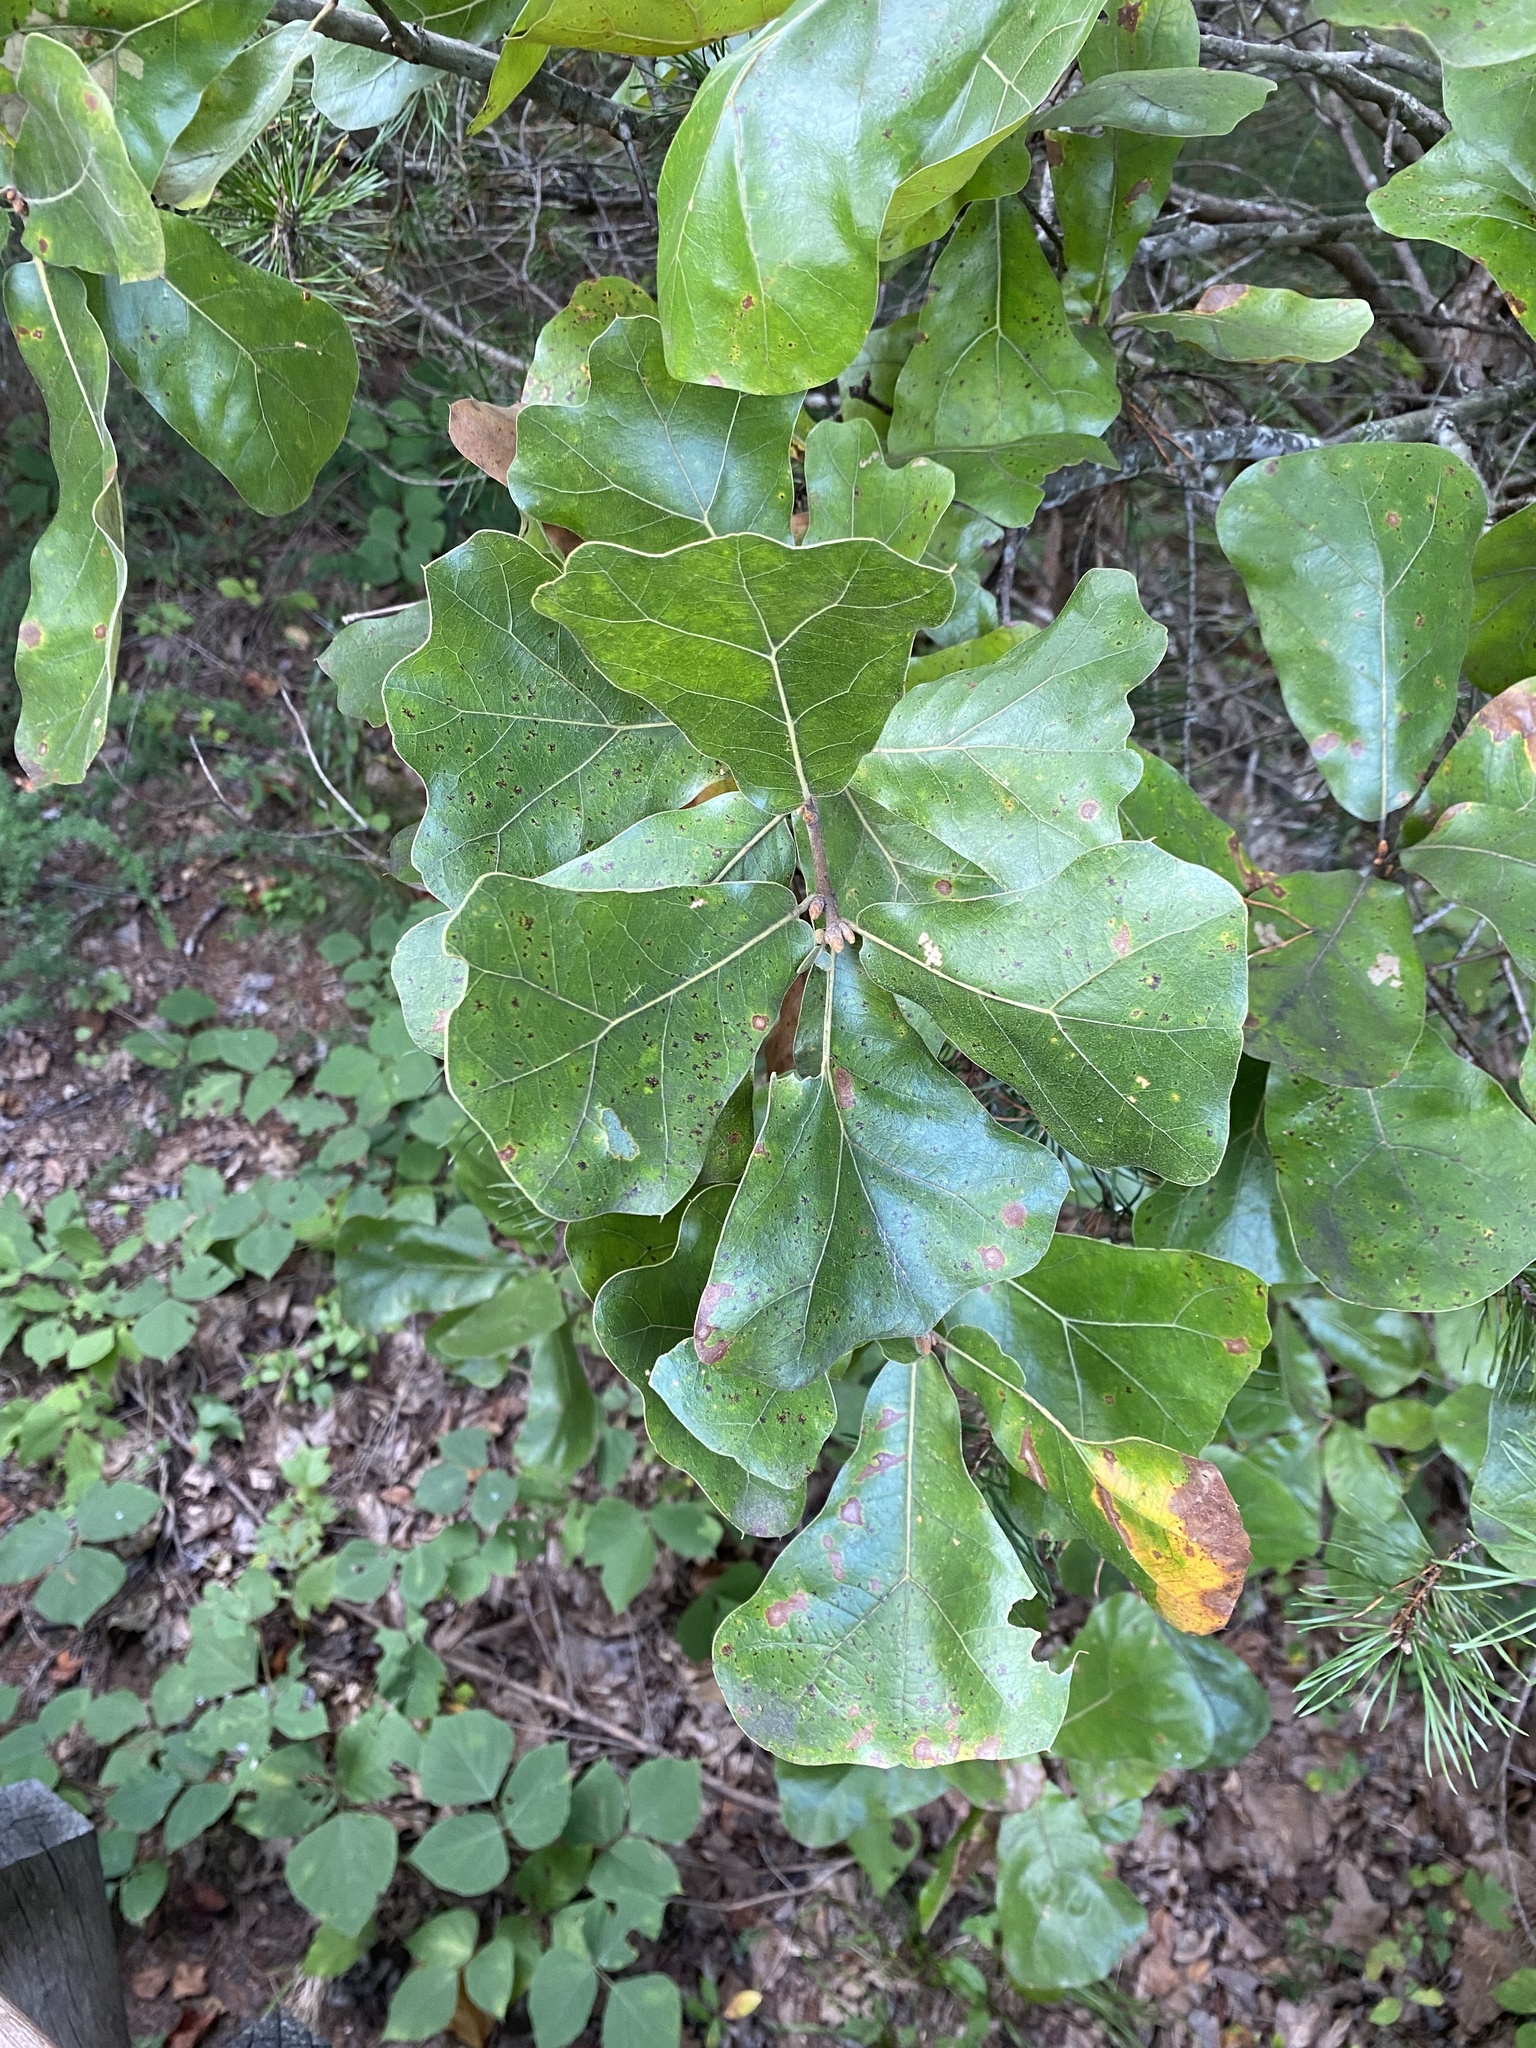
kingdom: Plantae
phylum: Tracheophyta
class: Magnoliopsida
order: Fagales
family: Fagaceae
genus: Quercus
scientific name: Quercus marilandica
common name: Blackjack oak
